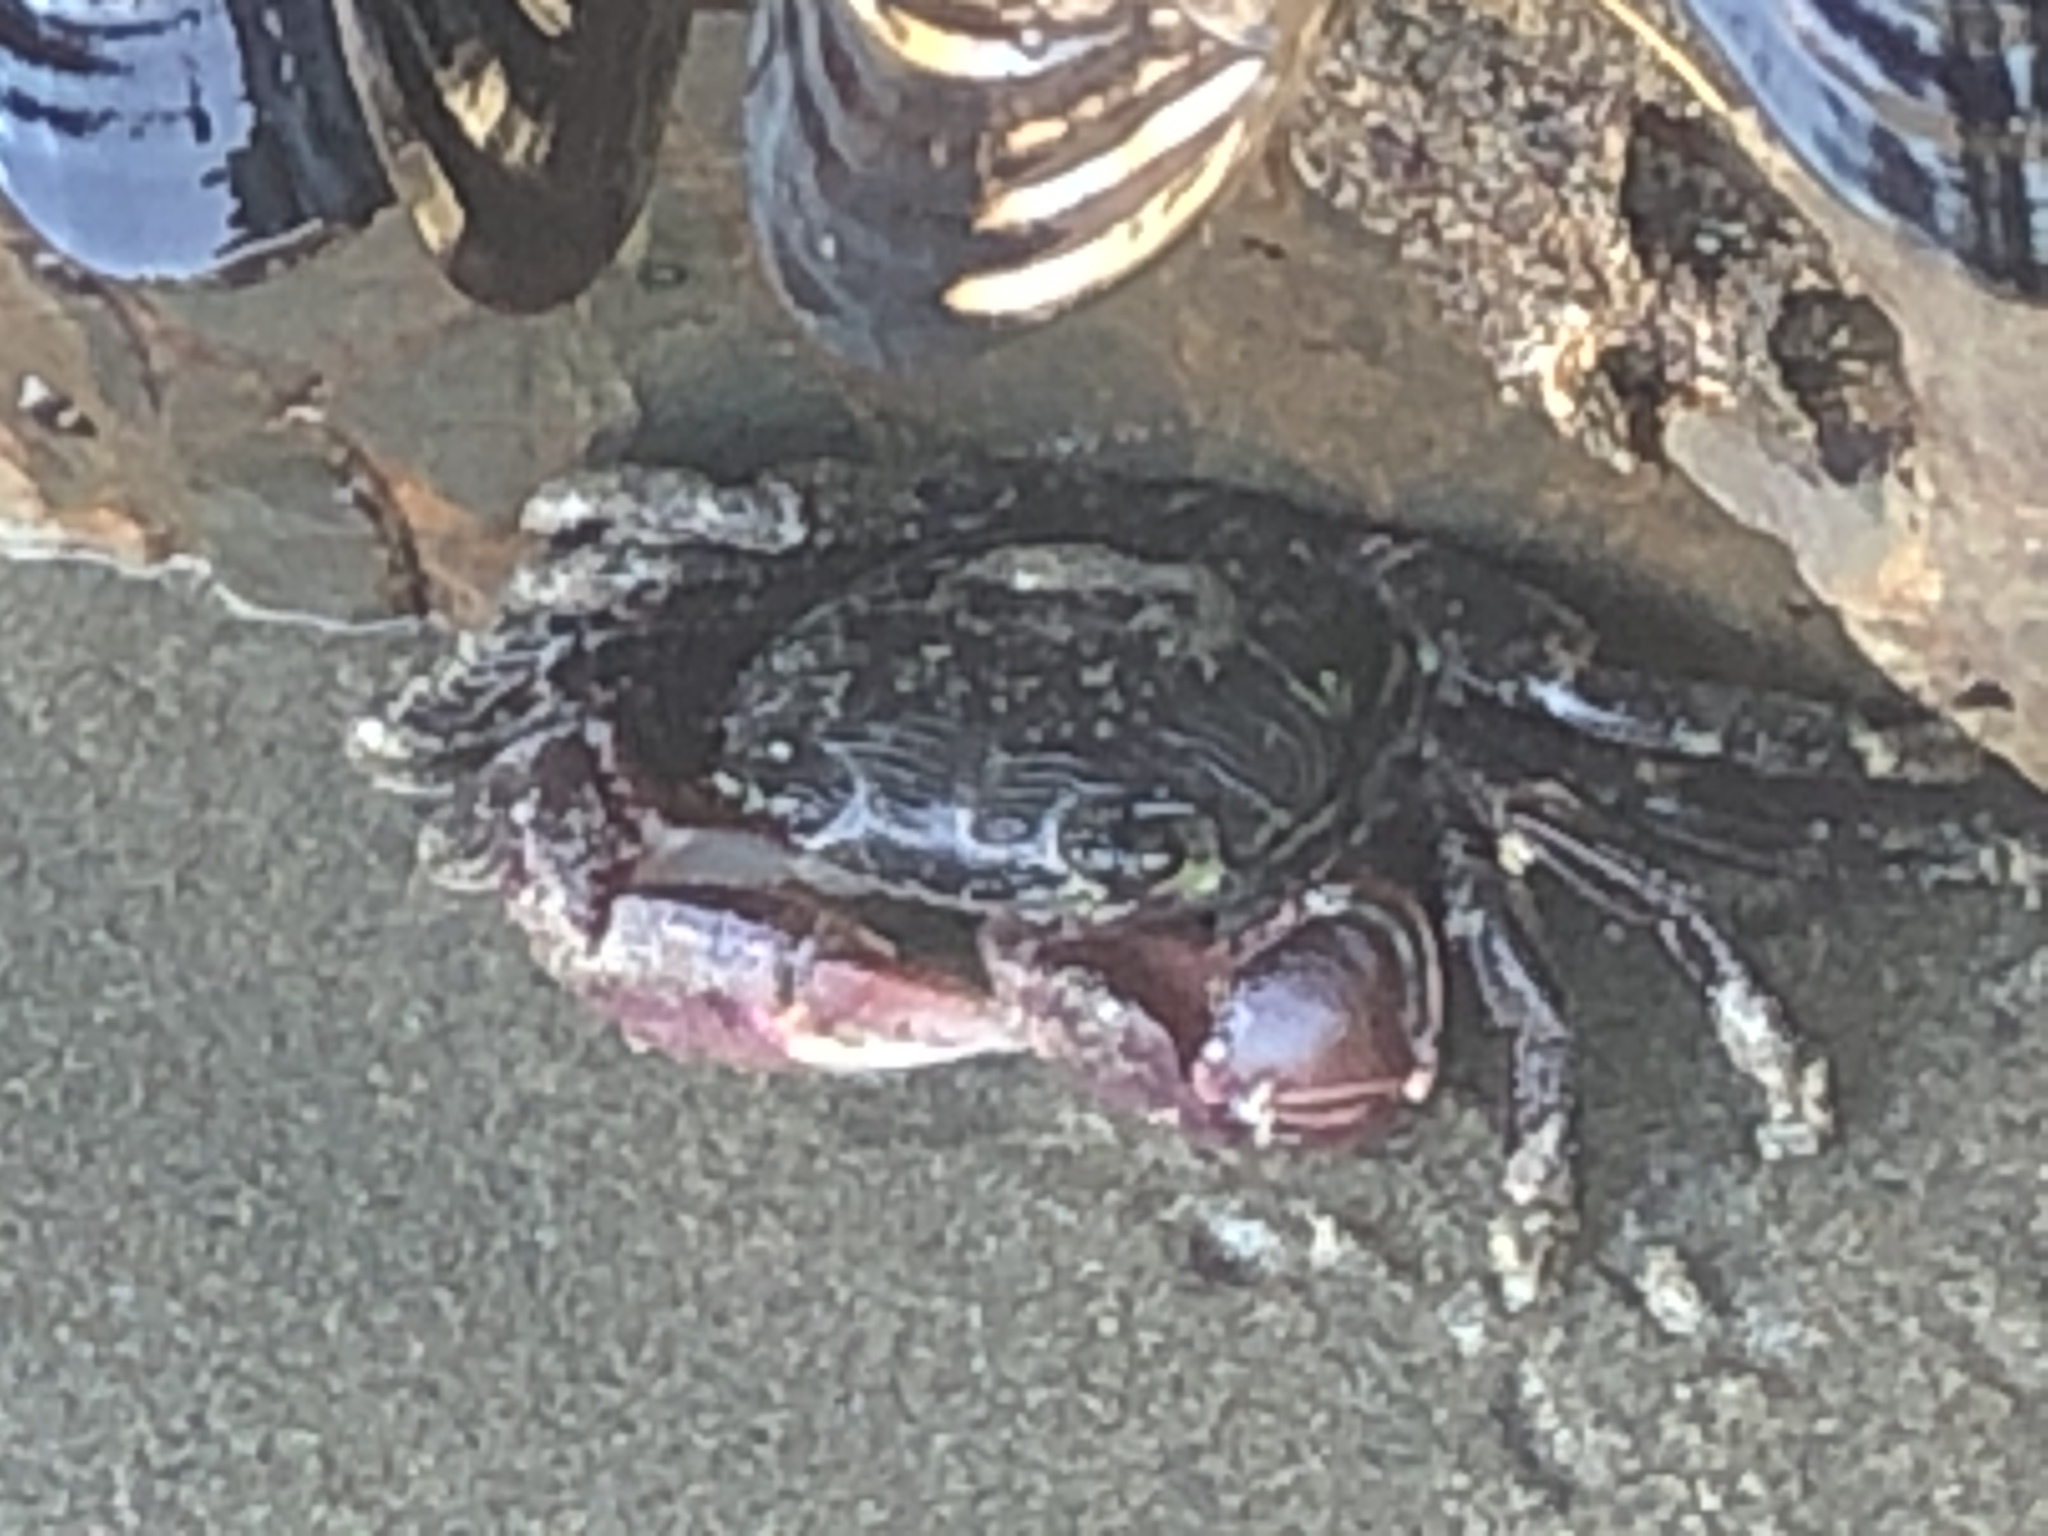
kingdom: Animalia
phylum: Arthropoda
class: Malacostraca
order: Decapoda
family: Grapsidae
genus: Pachygrapsus
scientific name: Pachygrapsus crassipes
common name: Striped shore crab
